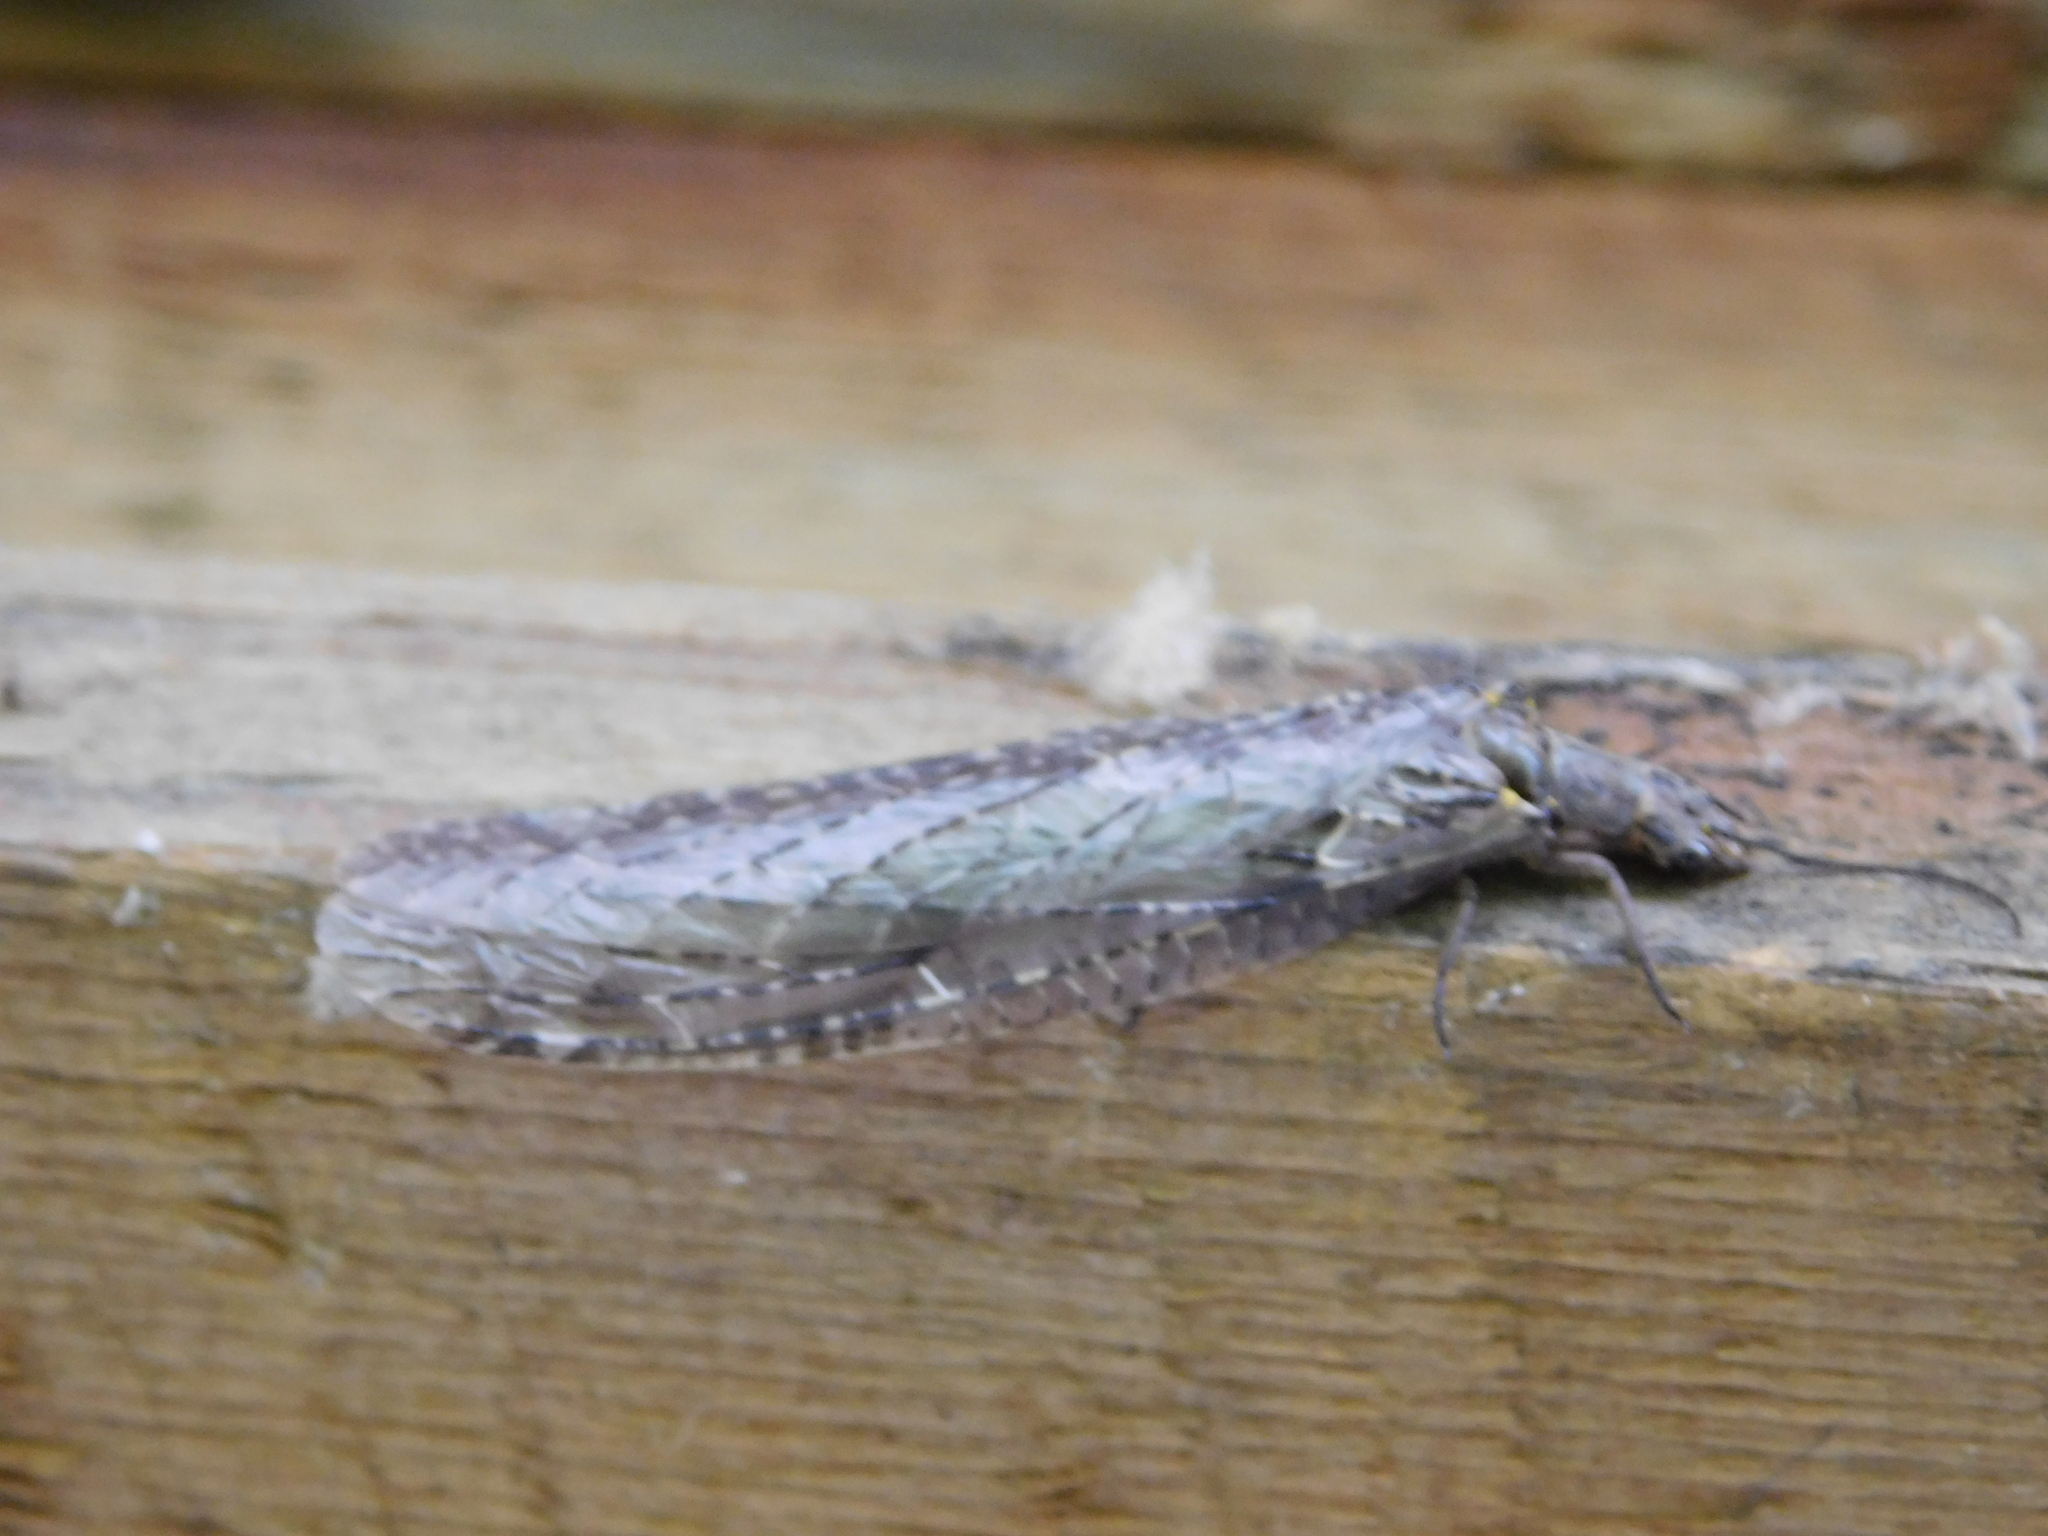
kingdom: Animalia
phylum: Arthropoda
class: Insecta
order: Megaloptera
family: Corydalidae
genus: Chauliodes
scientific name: Chauliodes rastricornis
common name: Spring fishfly
